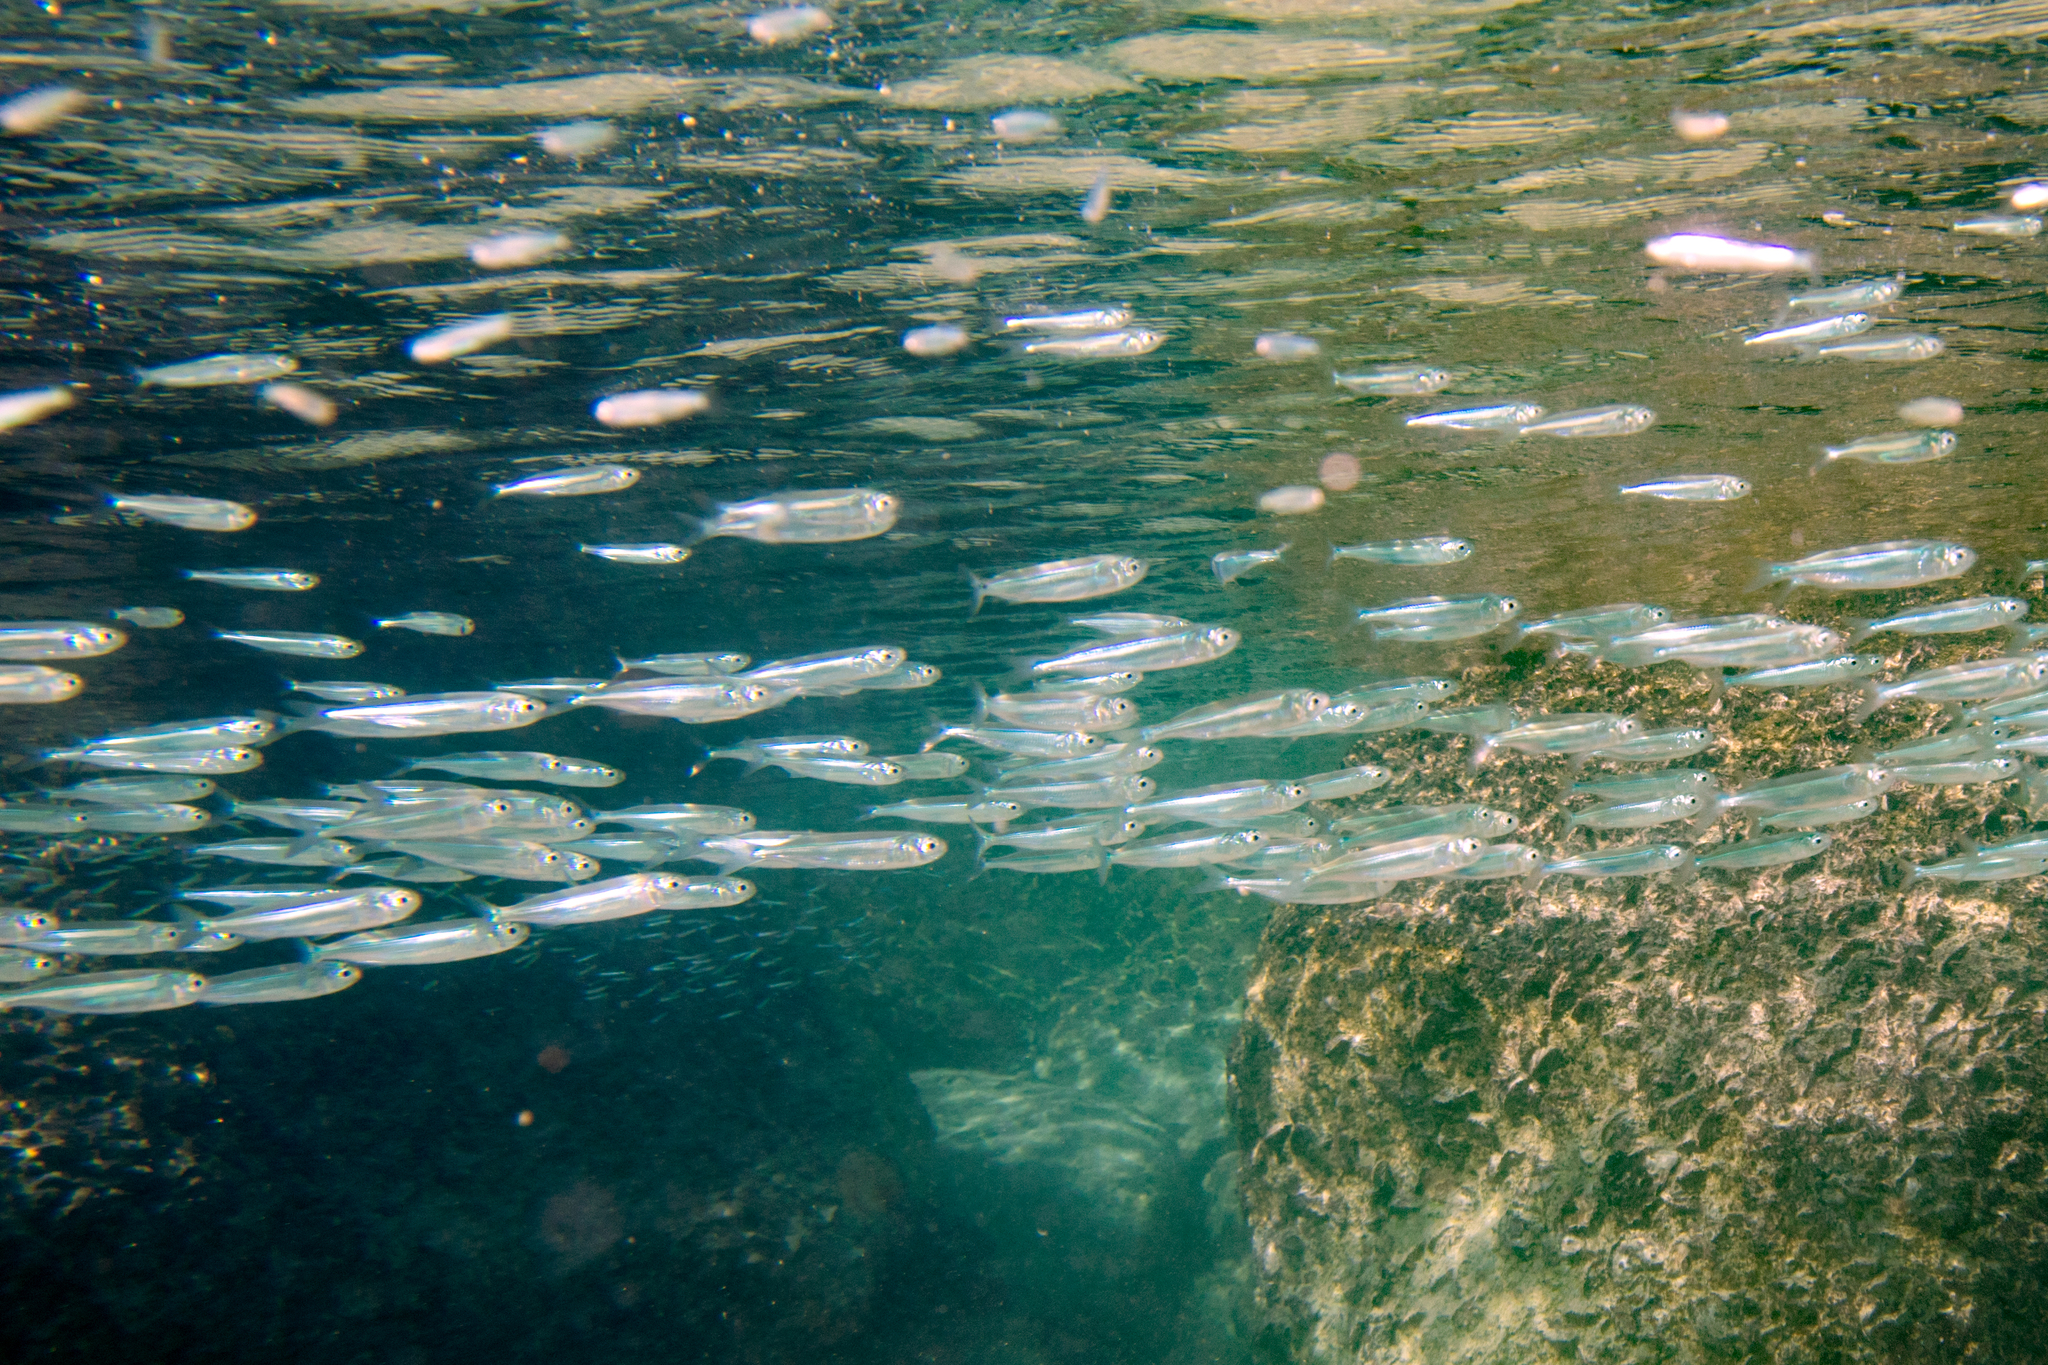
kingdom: Animalia
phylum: Chordata
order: Atheriniformes
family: Atherinidae
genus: Atherinomorus
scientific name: Atherinomorus lacunosus
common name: Hardyhead silverside
